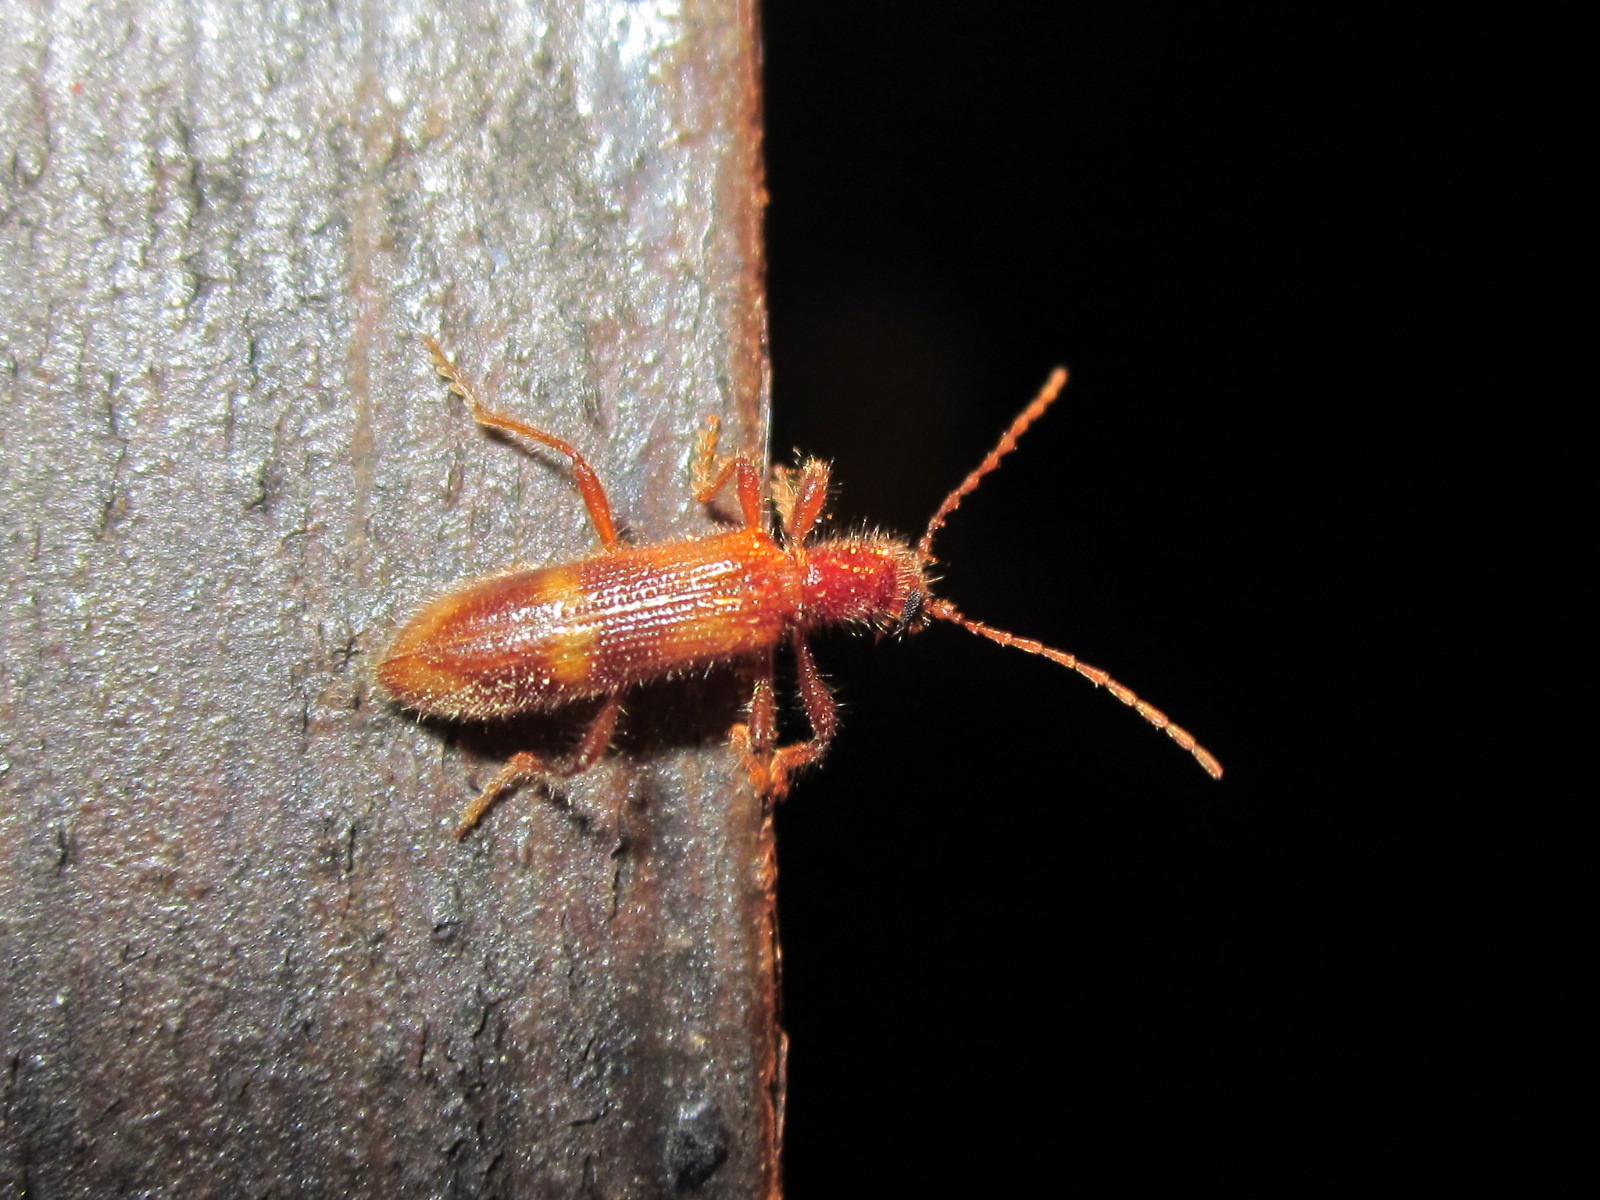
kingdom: Animalia
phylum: Arthropoda
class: Insecta
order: Coleoptera
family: Cleridae
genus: Notocymatodera
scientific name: Notocymatodera
